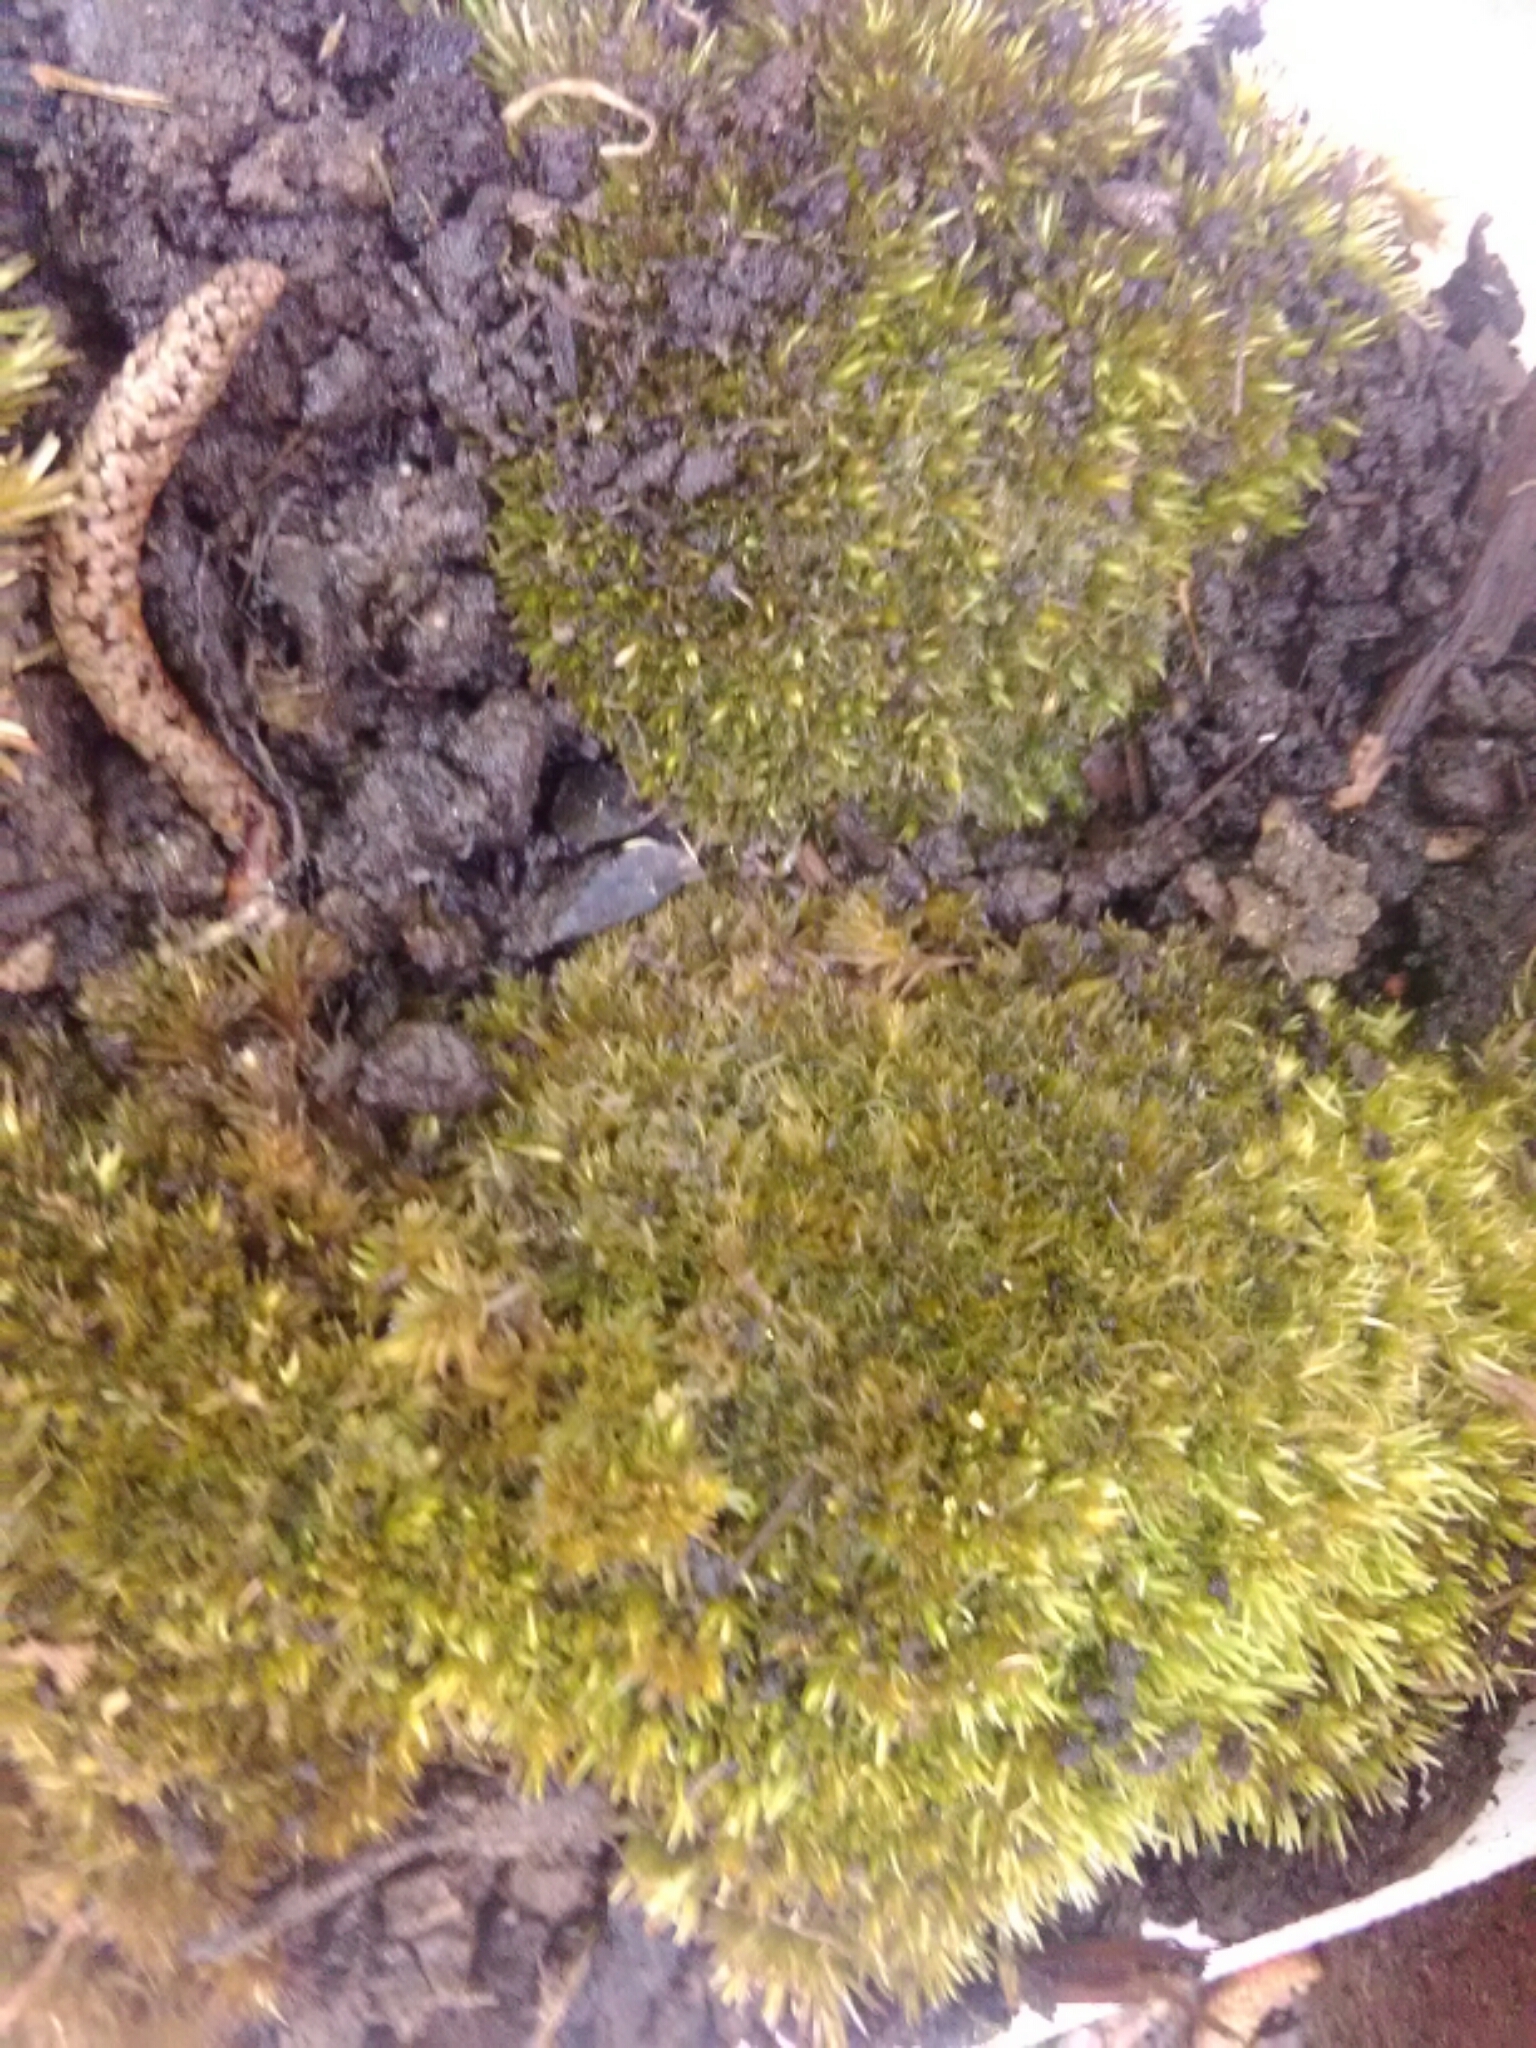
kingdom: Plantae
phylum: Bryophyta
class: Bryopsida
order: Dicranales
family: Leucobryaceae
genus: Leucobryum
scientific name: Leucobryum glaucum
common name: Large white-moss
